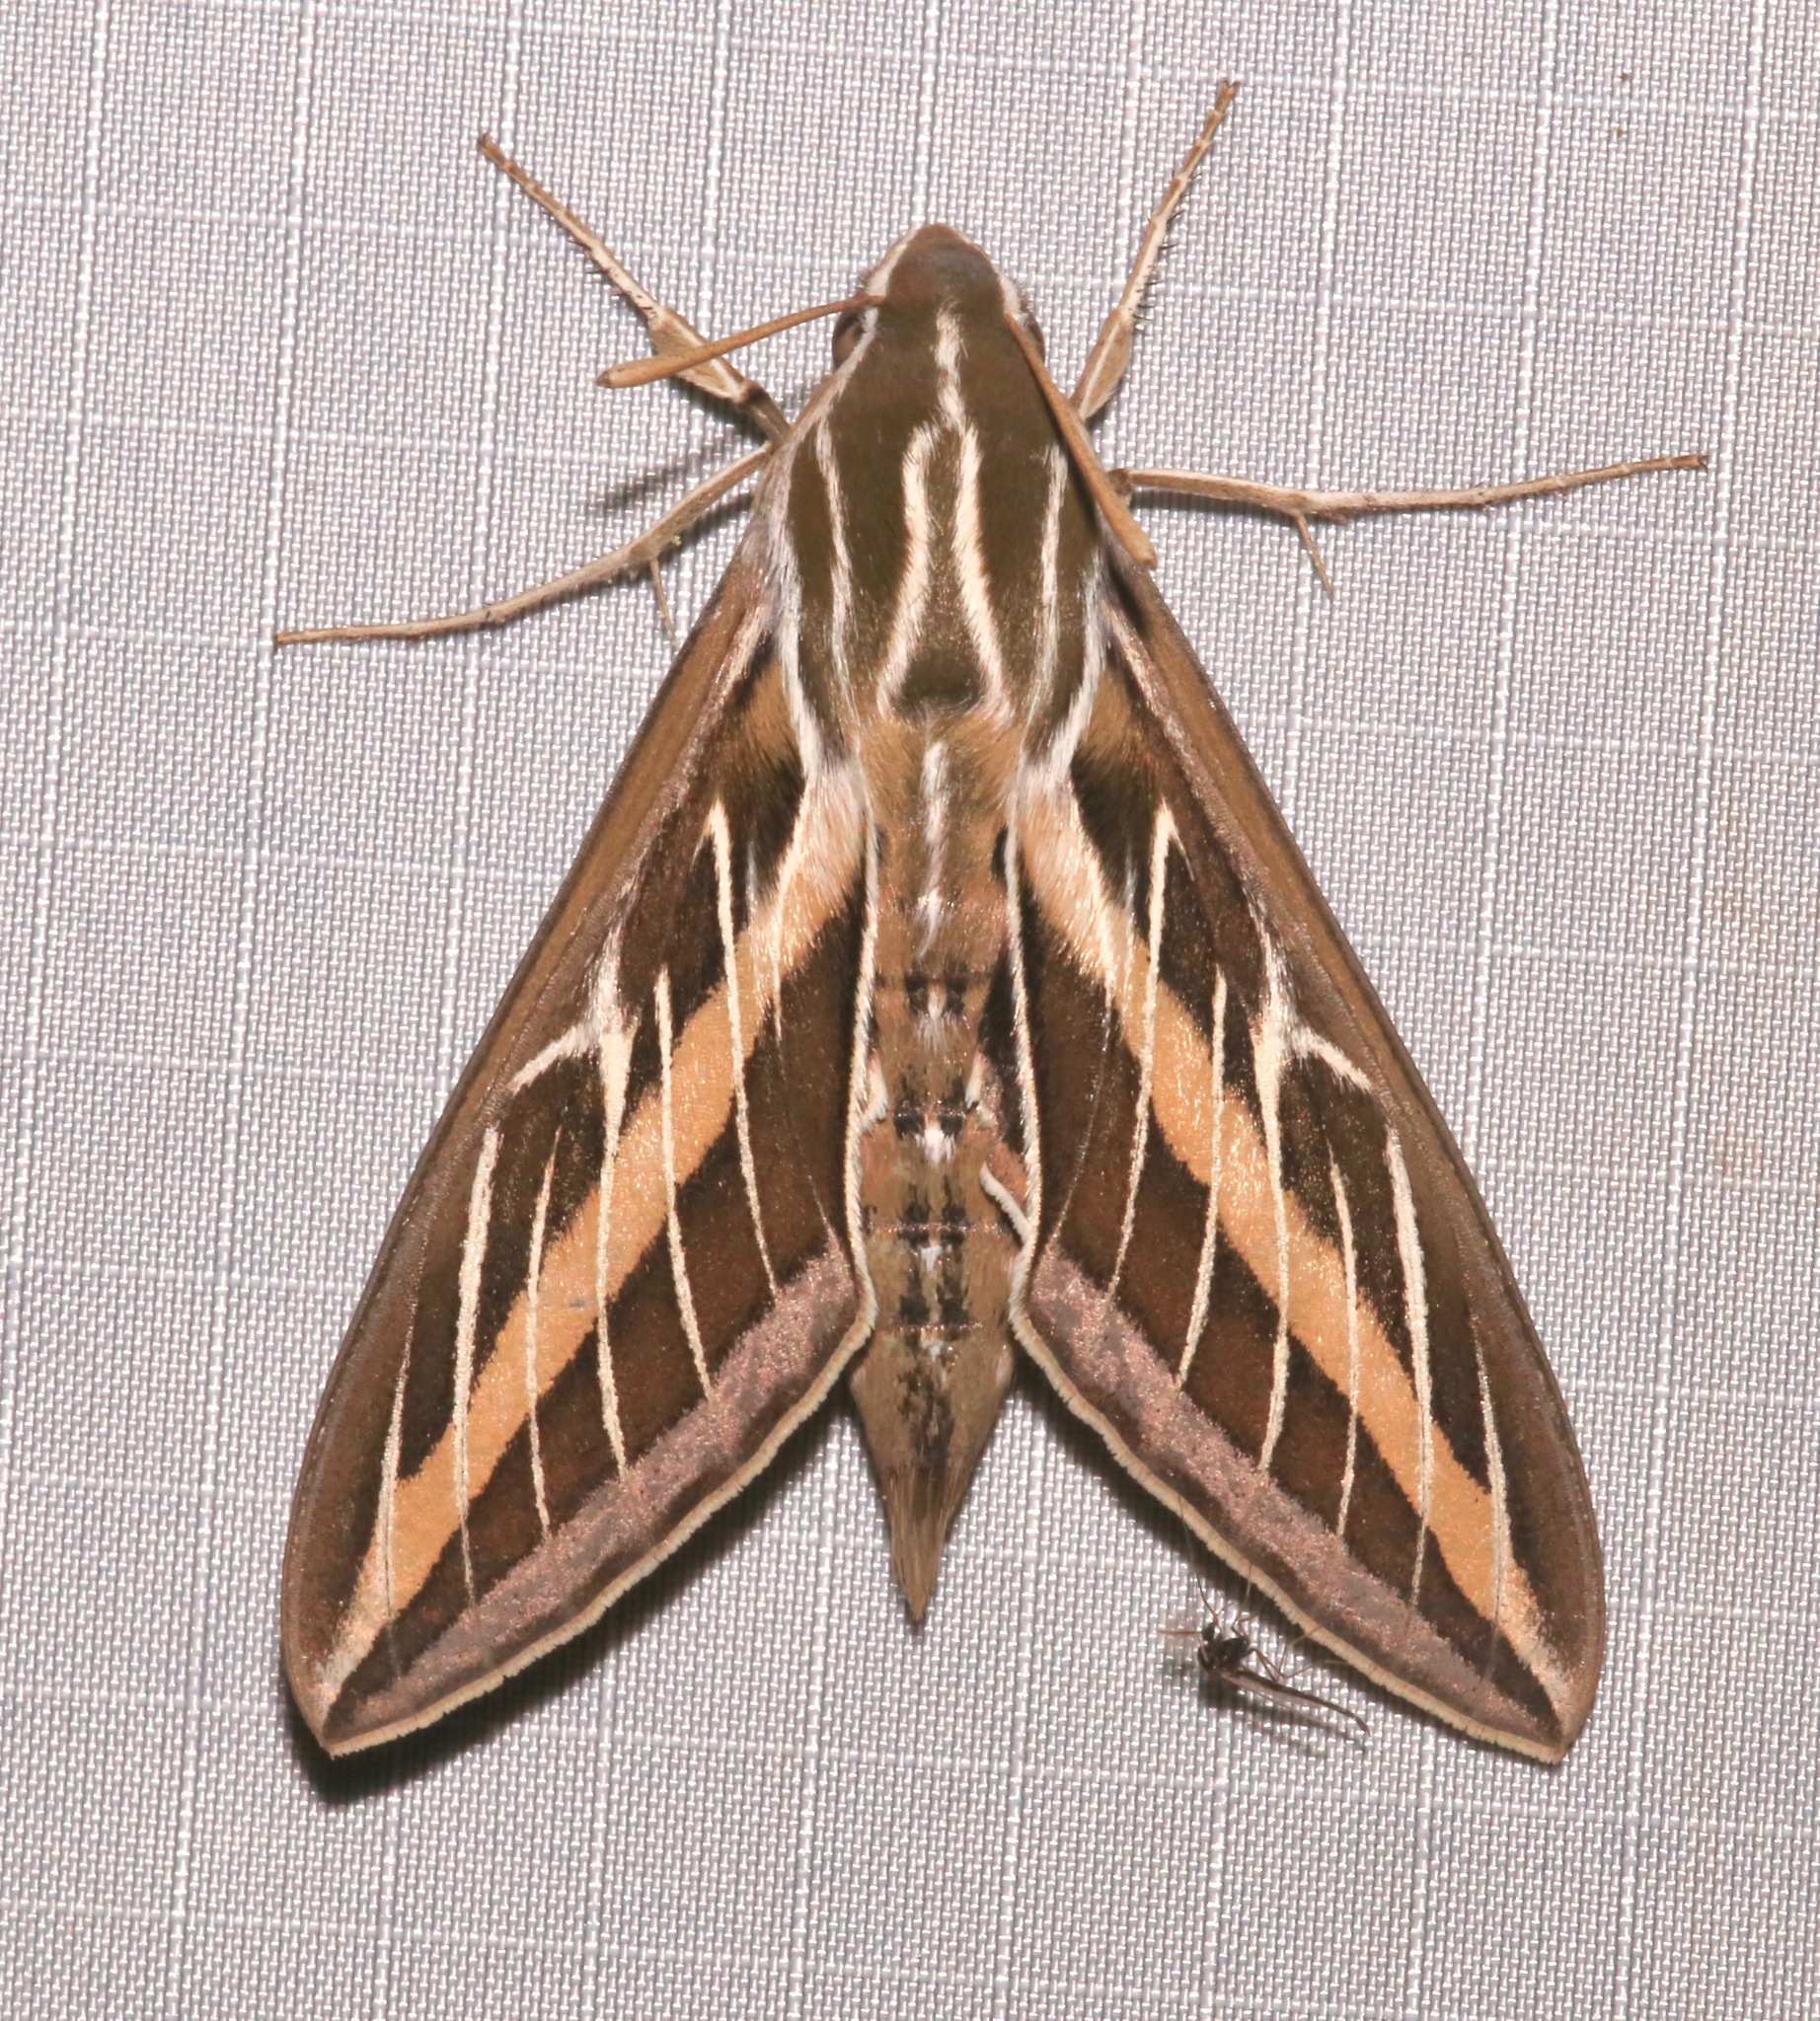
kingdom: Animalia
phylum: Arthropoda
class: Insecta
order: Lepidoptera
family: Sphingidae
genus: Hyles
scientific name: Hyles lineata
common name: White-lined sphinx
